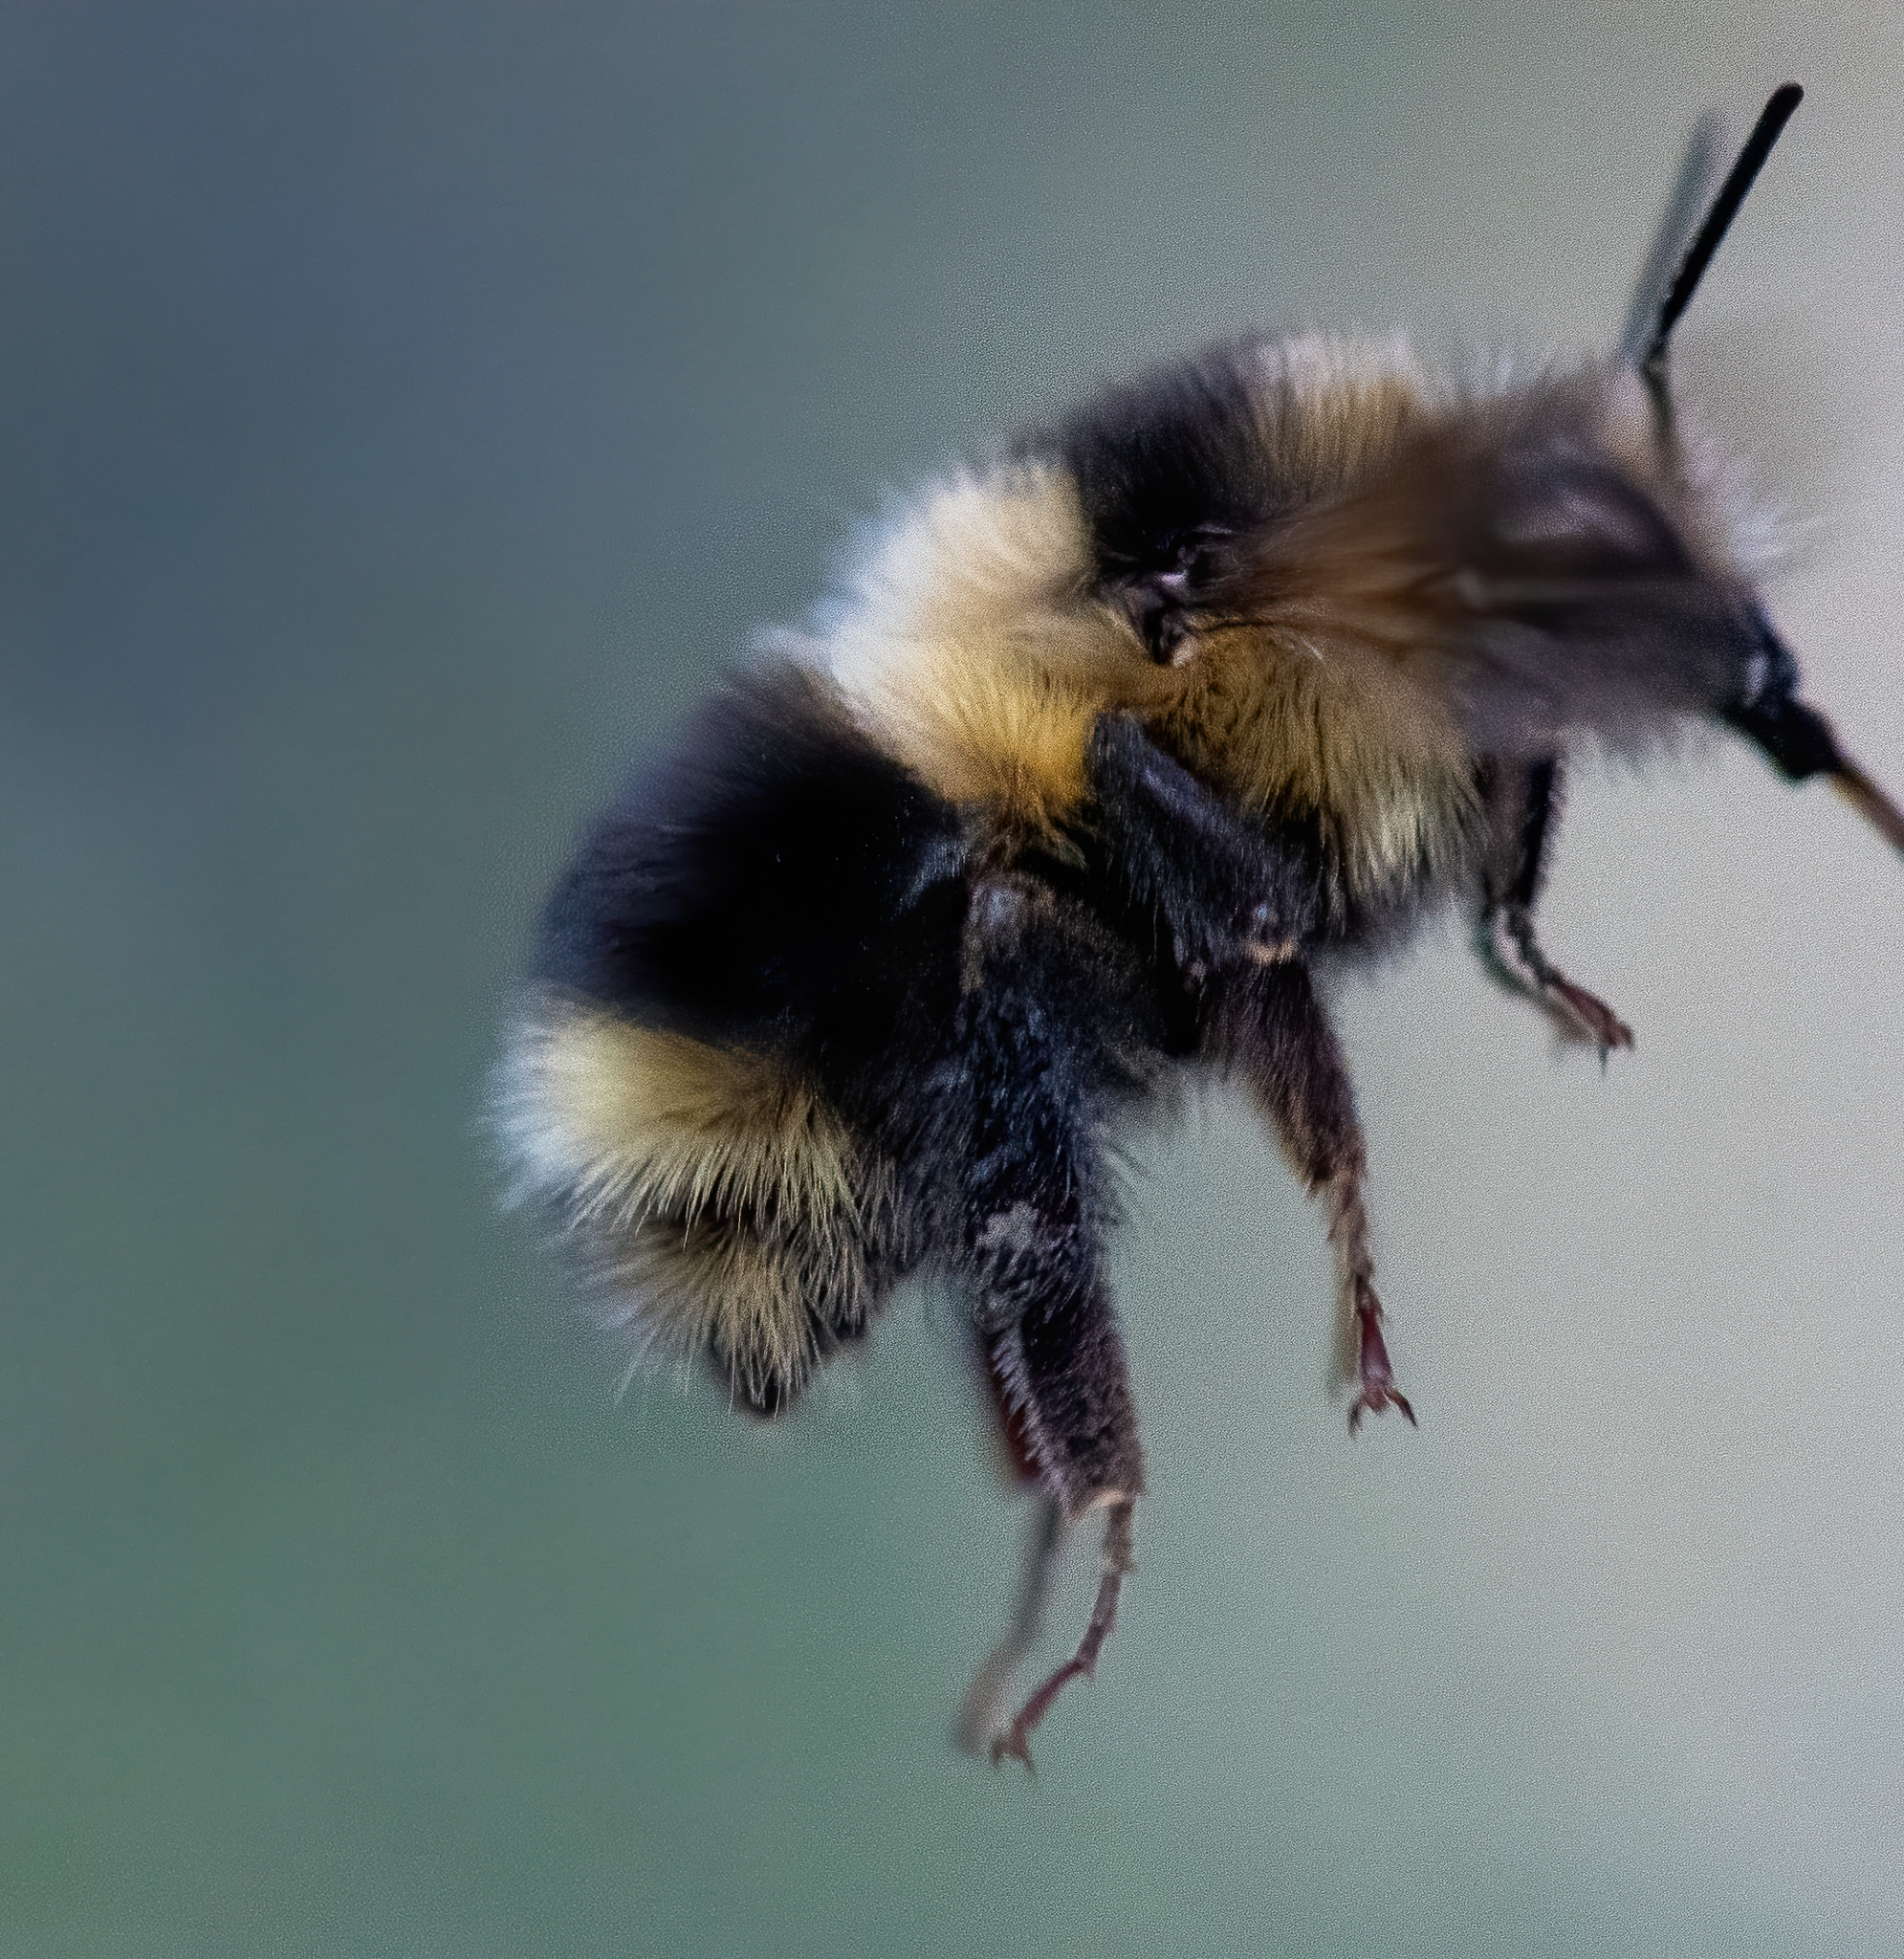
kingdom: Animalia
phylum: Arthropoda
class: Insecta
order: Hymenoptera
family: Apidae
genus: Bombus
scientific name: Bombus melanopygus
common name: Black tail bumble bee
